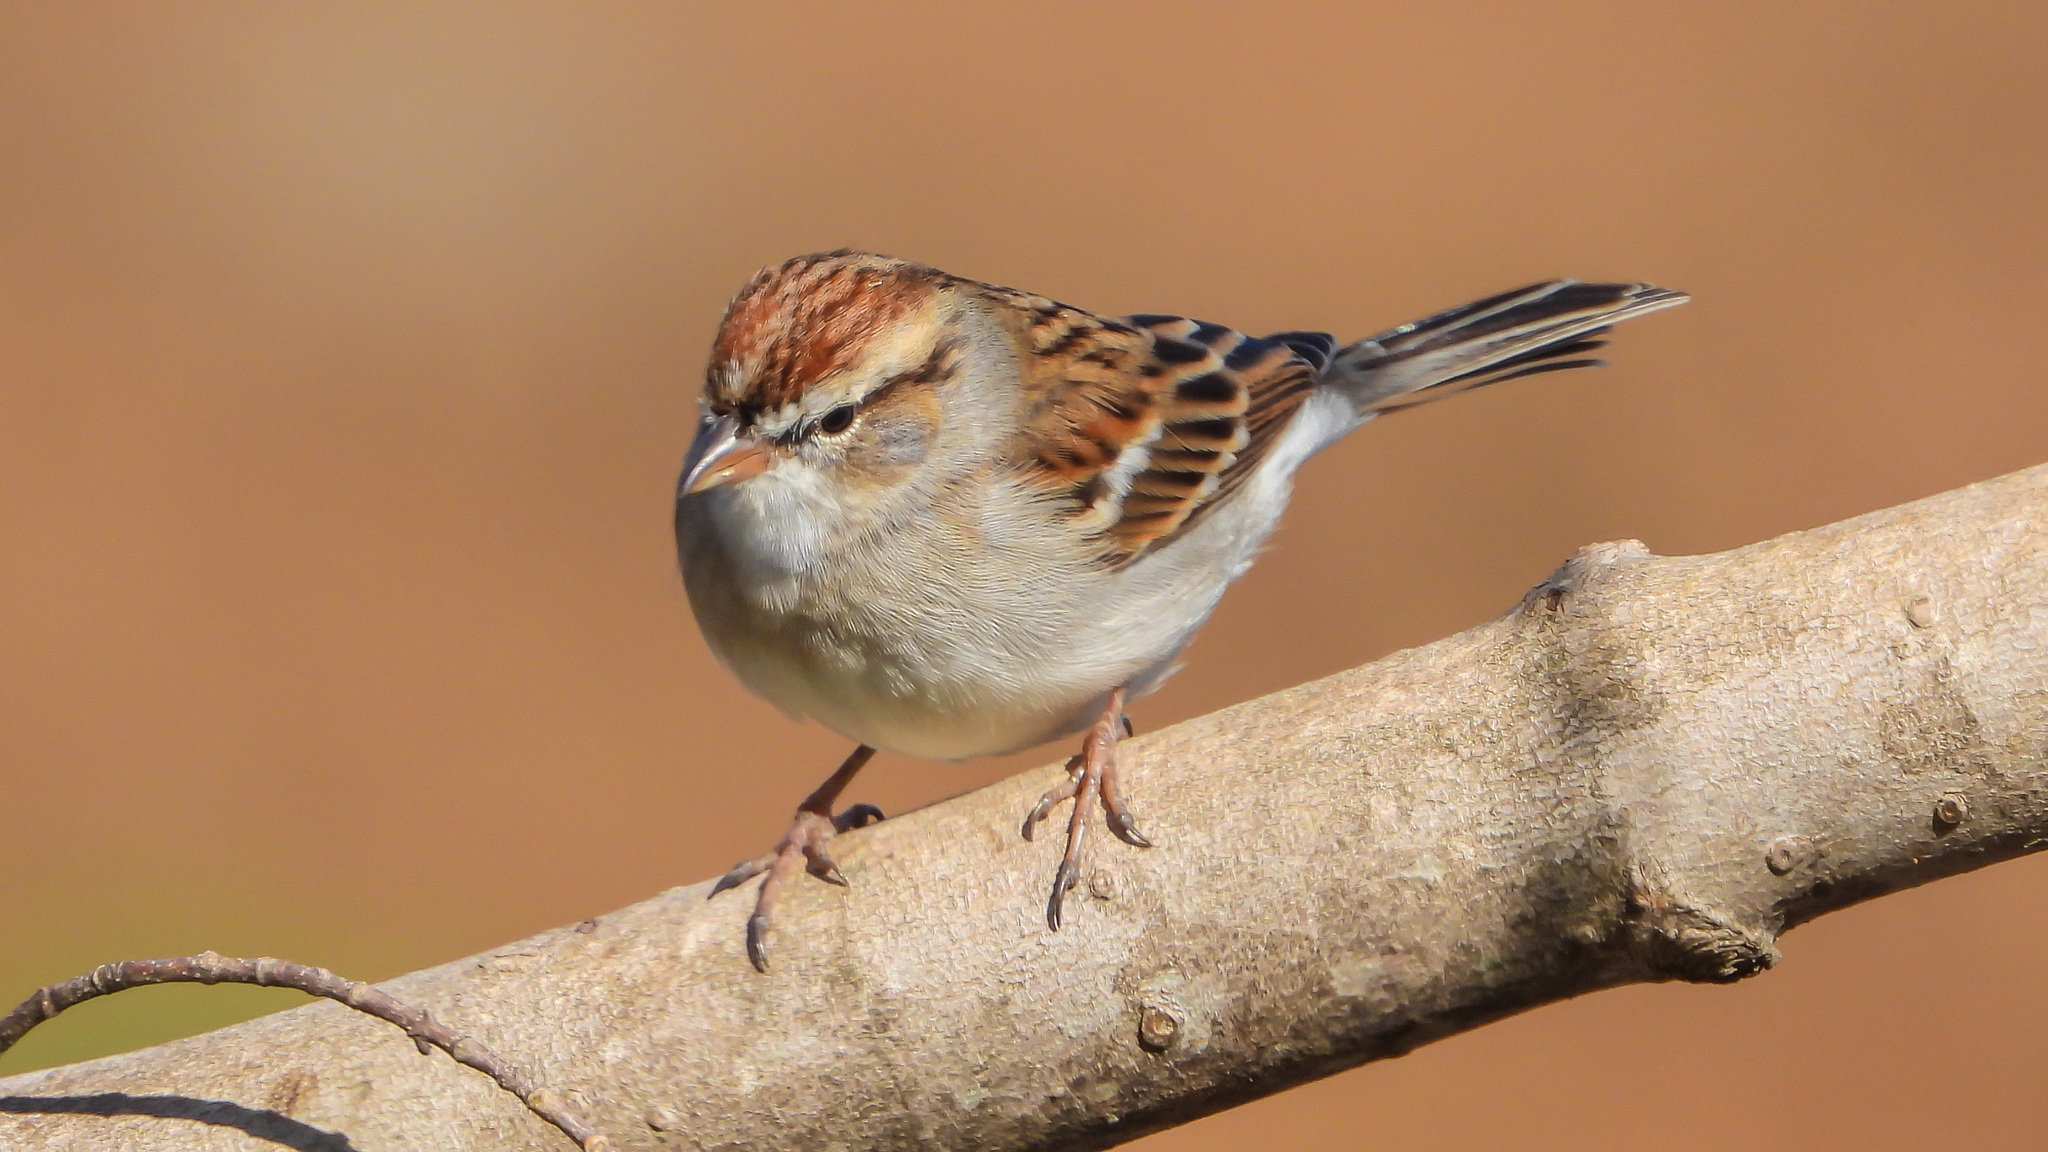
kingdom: Animalia
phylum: Chordata
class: Aves
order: Passeriformes
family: Passerellidae
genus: Spizella
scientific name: Spizella passerina
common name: Chipping sparrow
